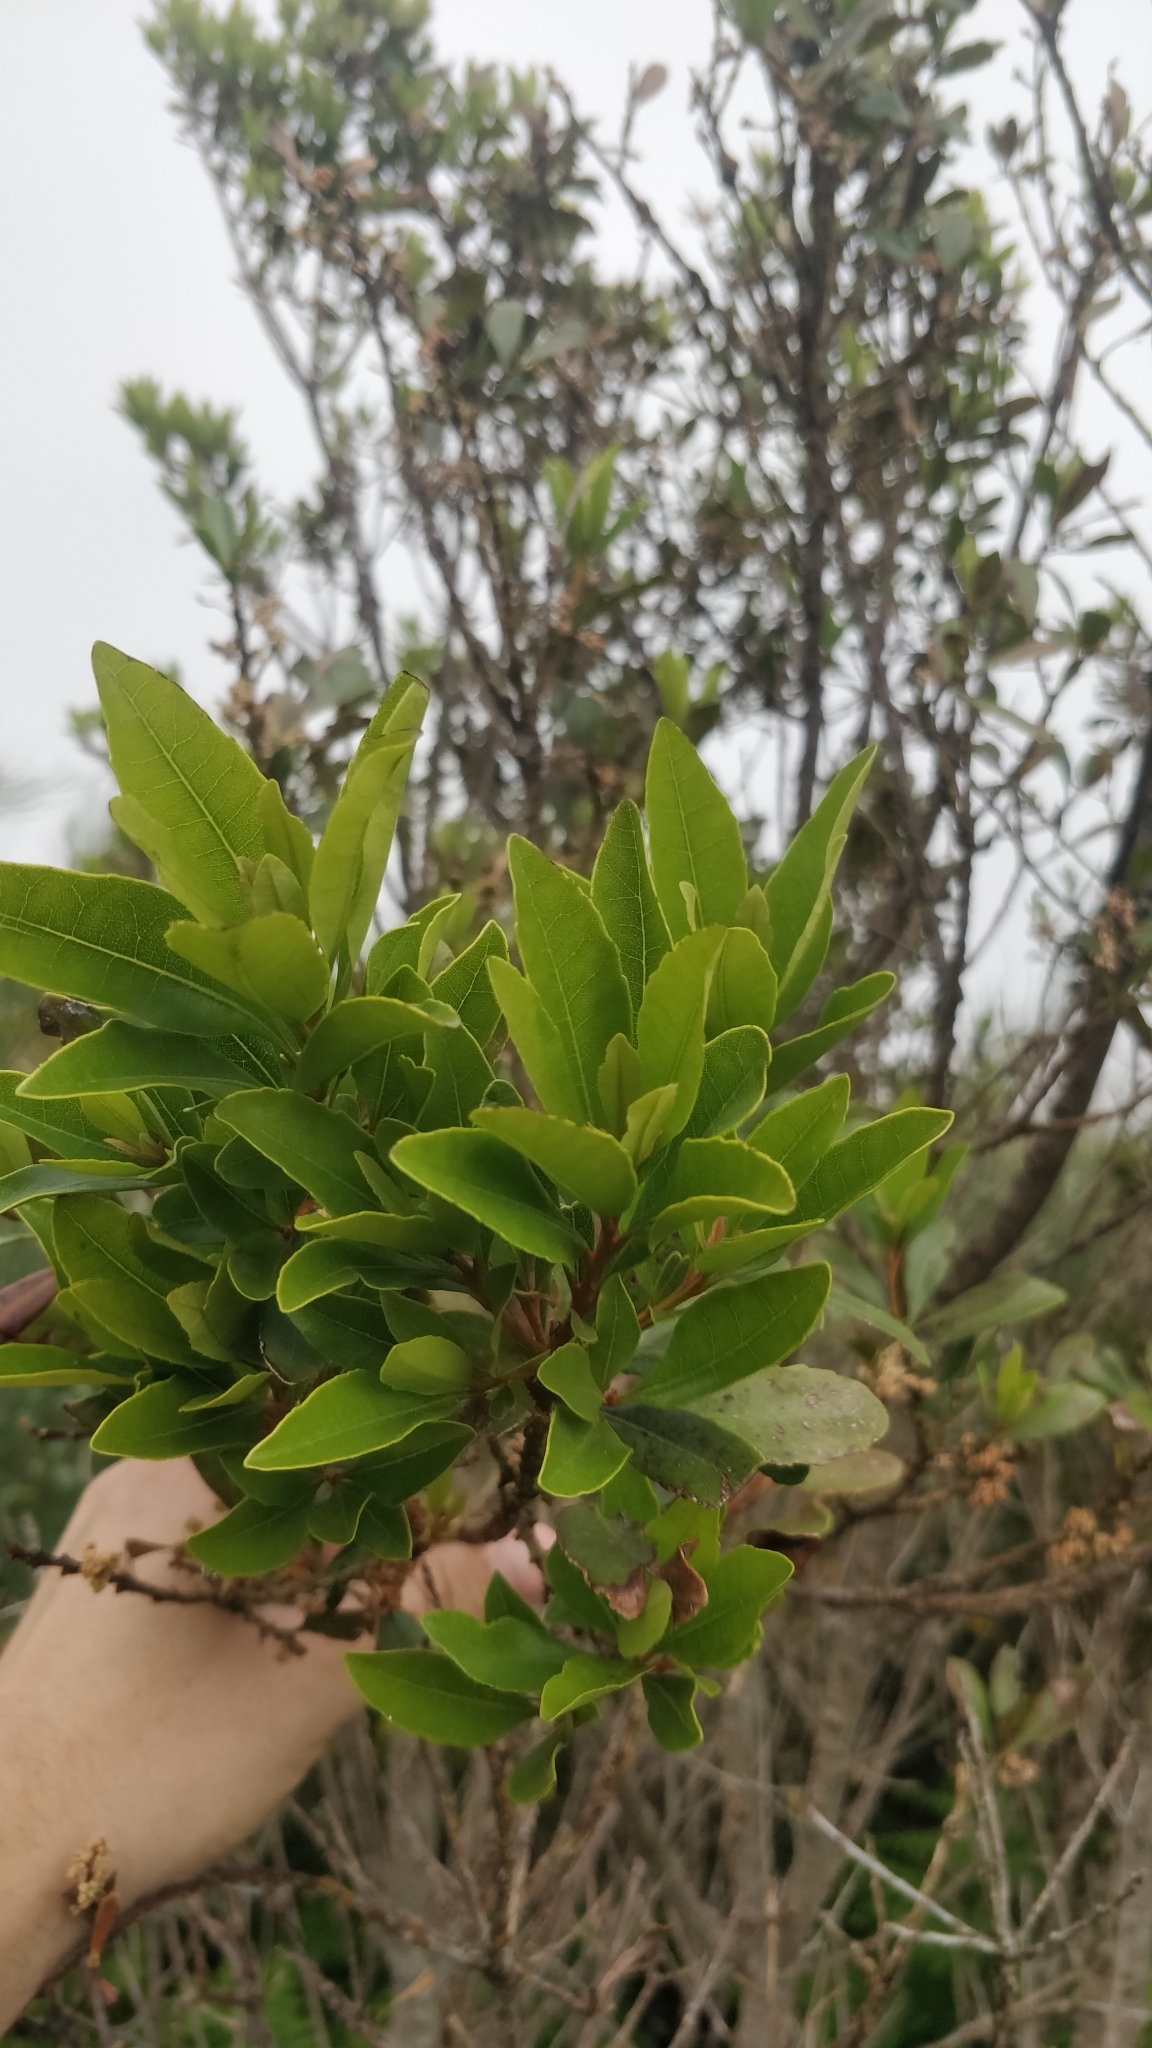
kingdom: Plantae
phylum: Tracheophyta
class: Magnoliopsida
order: Fagales
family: Myricaceae
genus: Morella
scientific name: Morella faya
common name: Firetree
